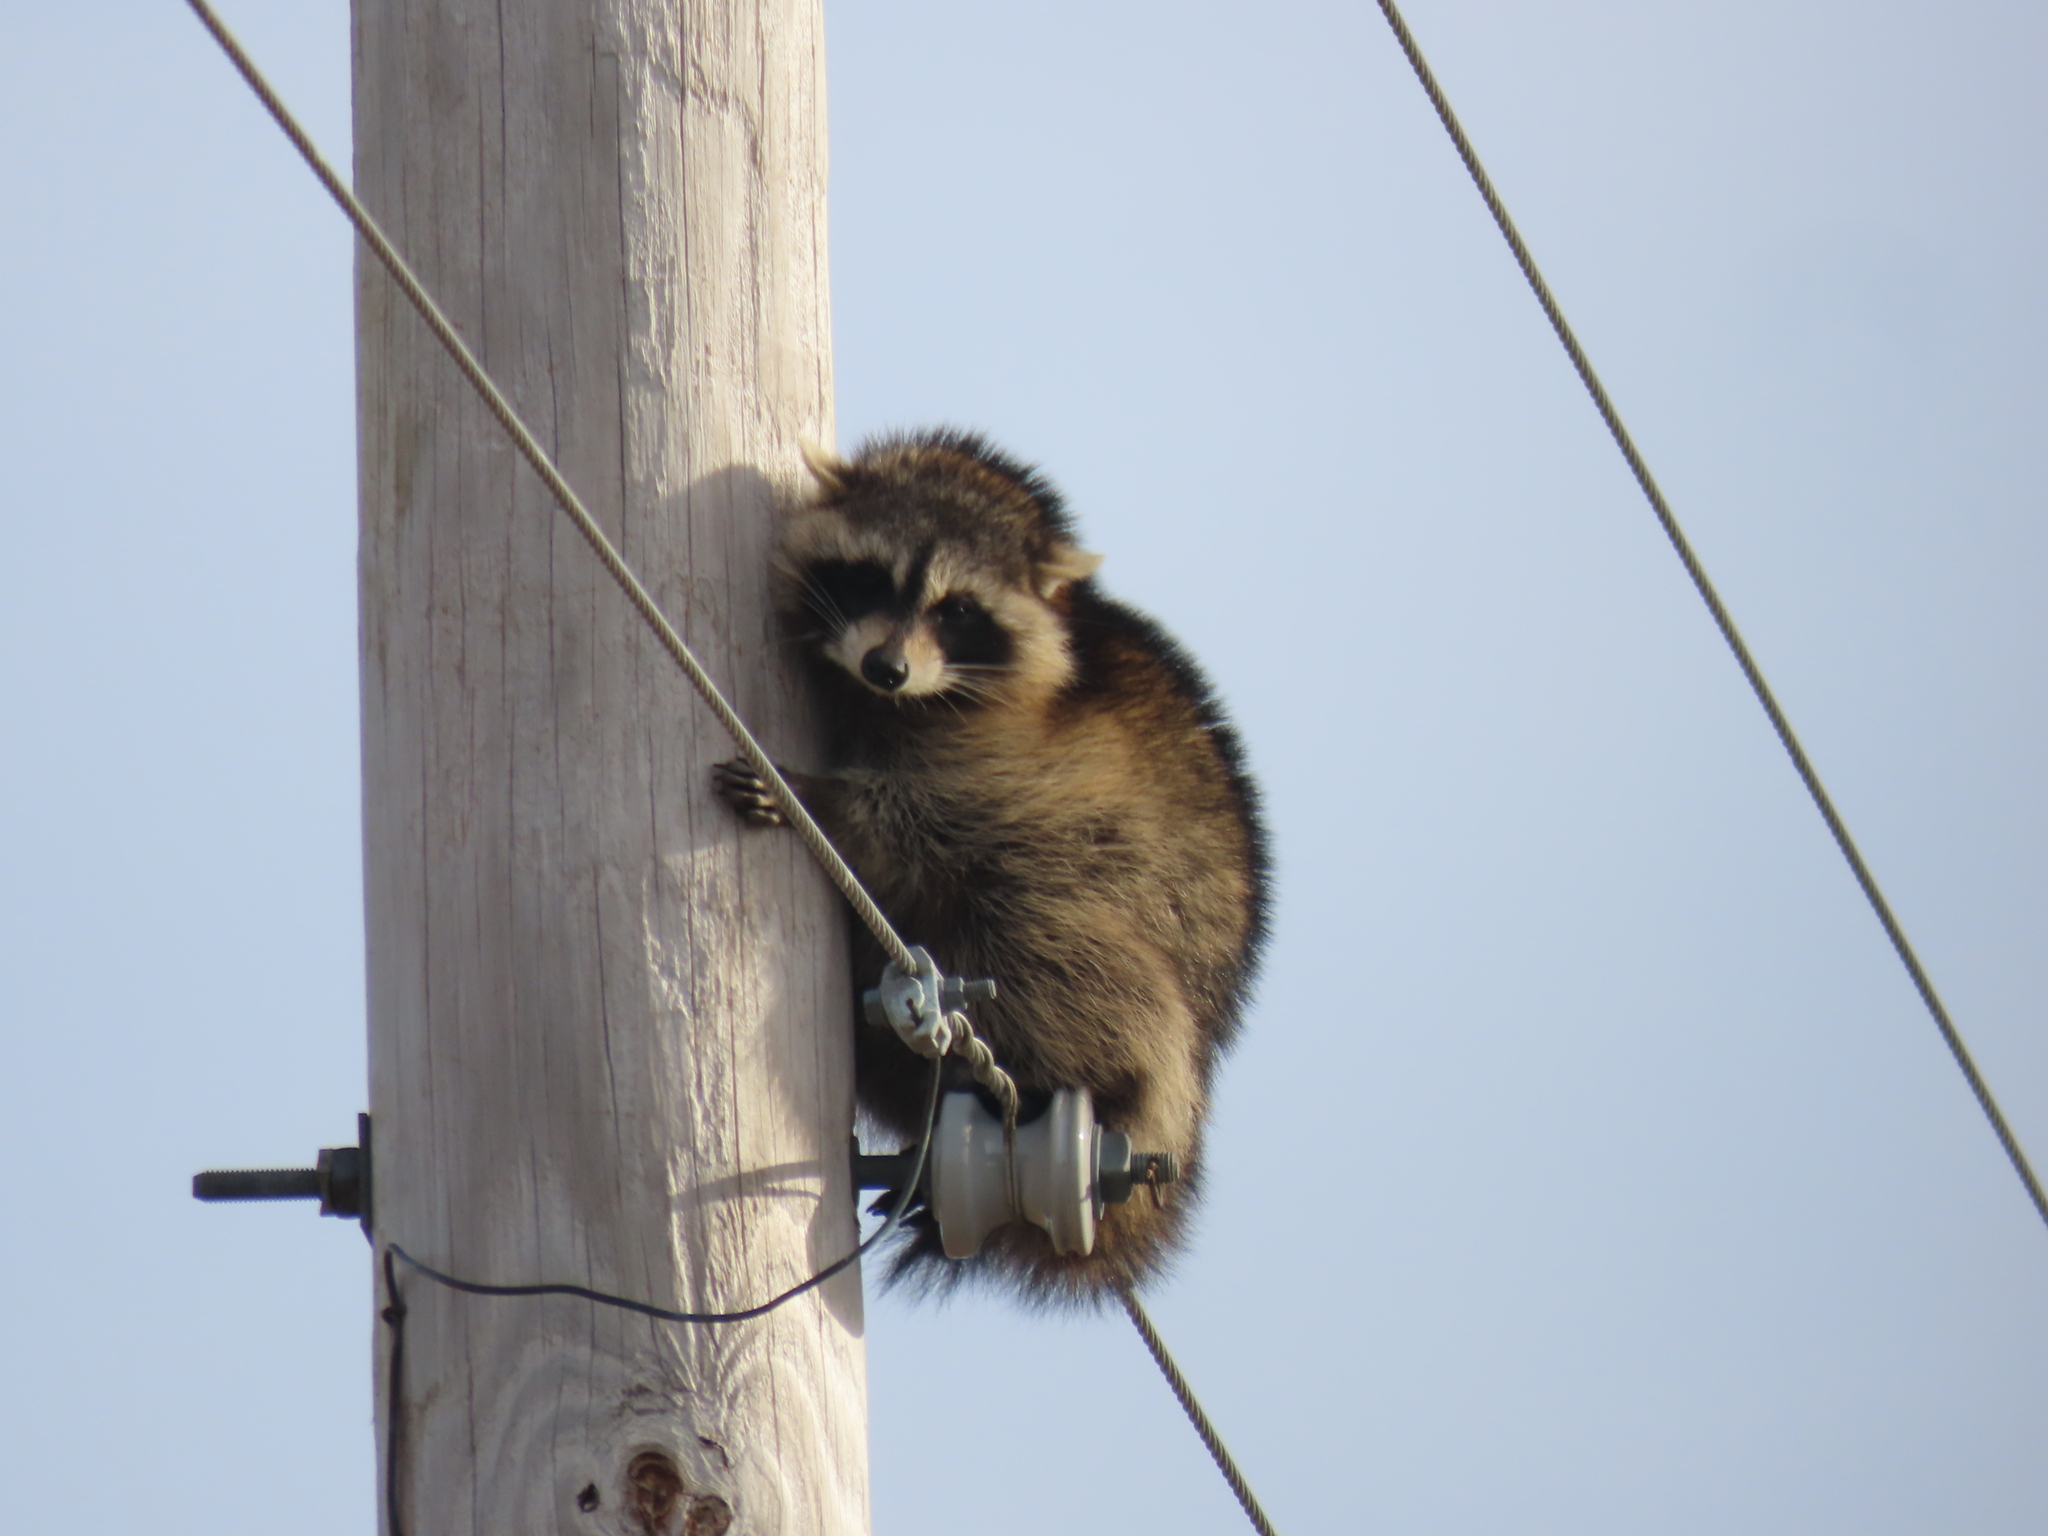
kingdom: Animalia
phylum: Chordata
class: Mammalia
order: Carnivora
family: Procyonidae
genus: Procyon
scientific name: Procyon lotor
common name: Raccoon
